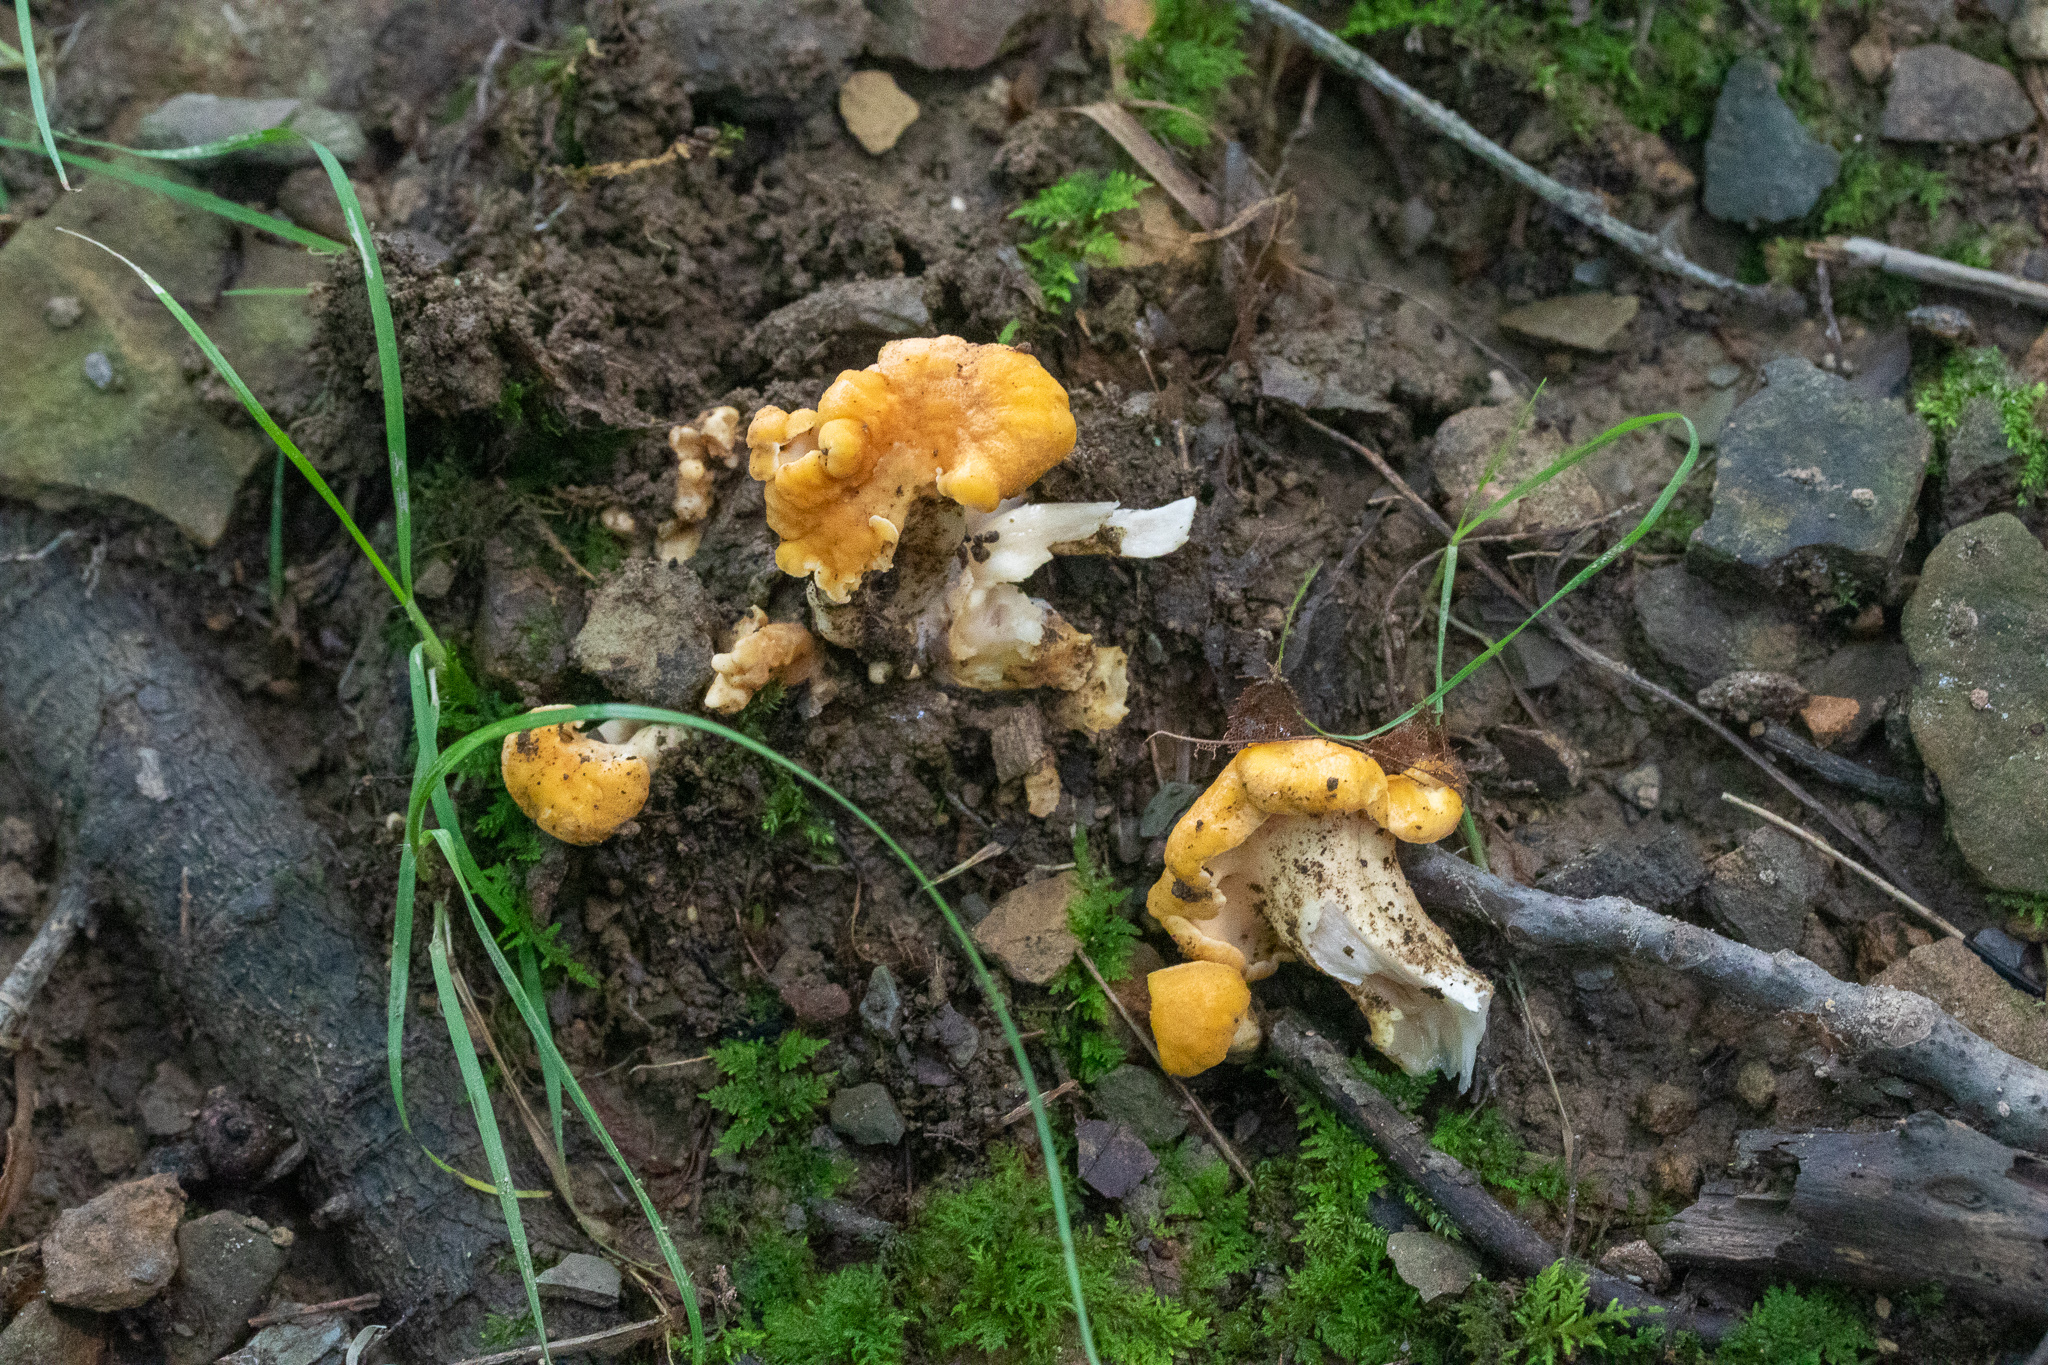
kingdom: Fungi
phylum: Basidiomycota
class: Agaricomycetes
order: Cantharellales
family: Hydnaceae
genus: Cantharellus
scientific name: Cantharellus lateritius
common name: Smooth chanterelle
